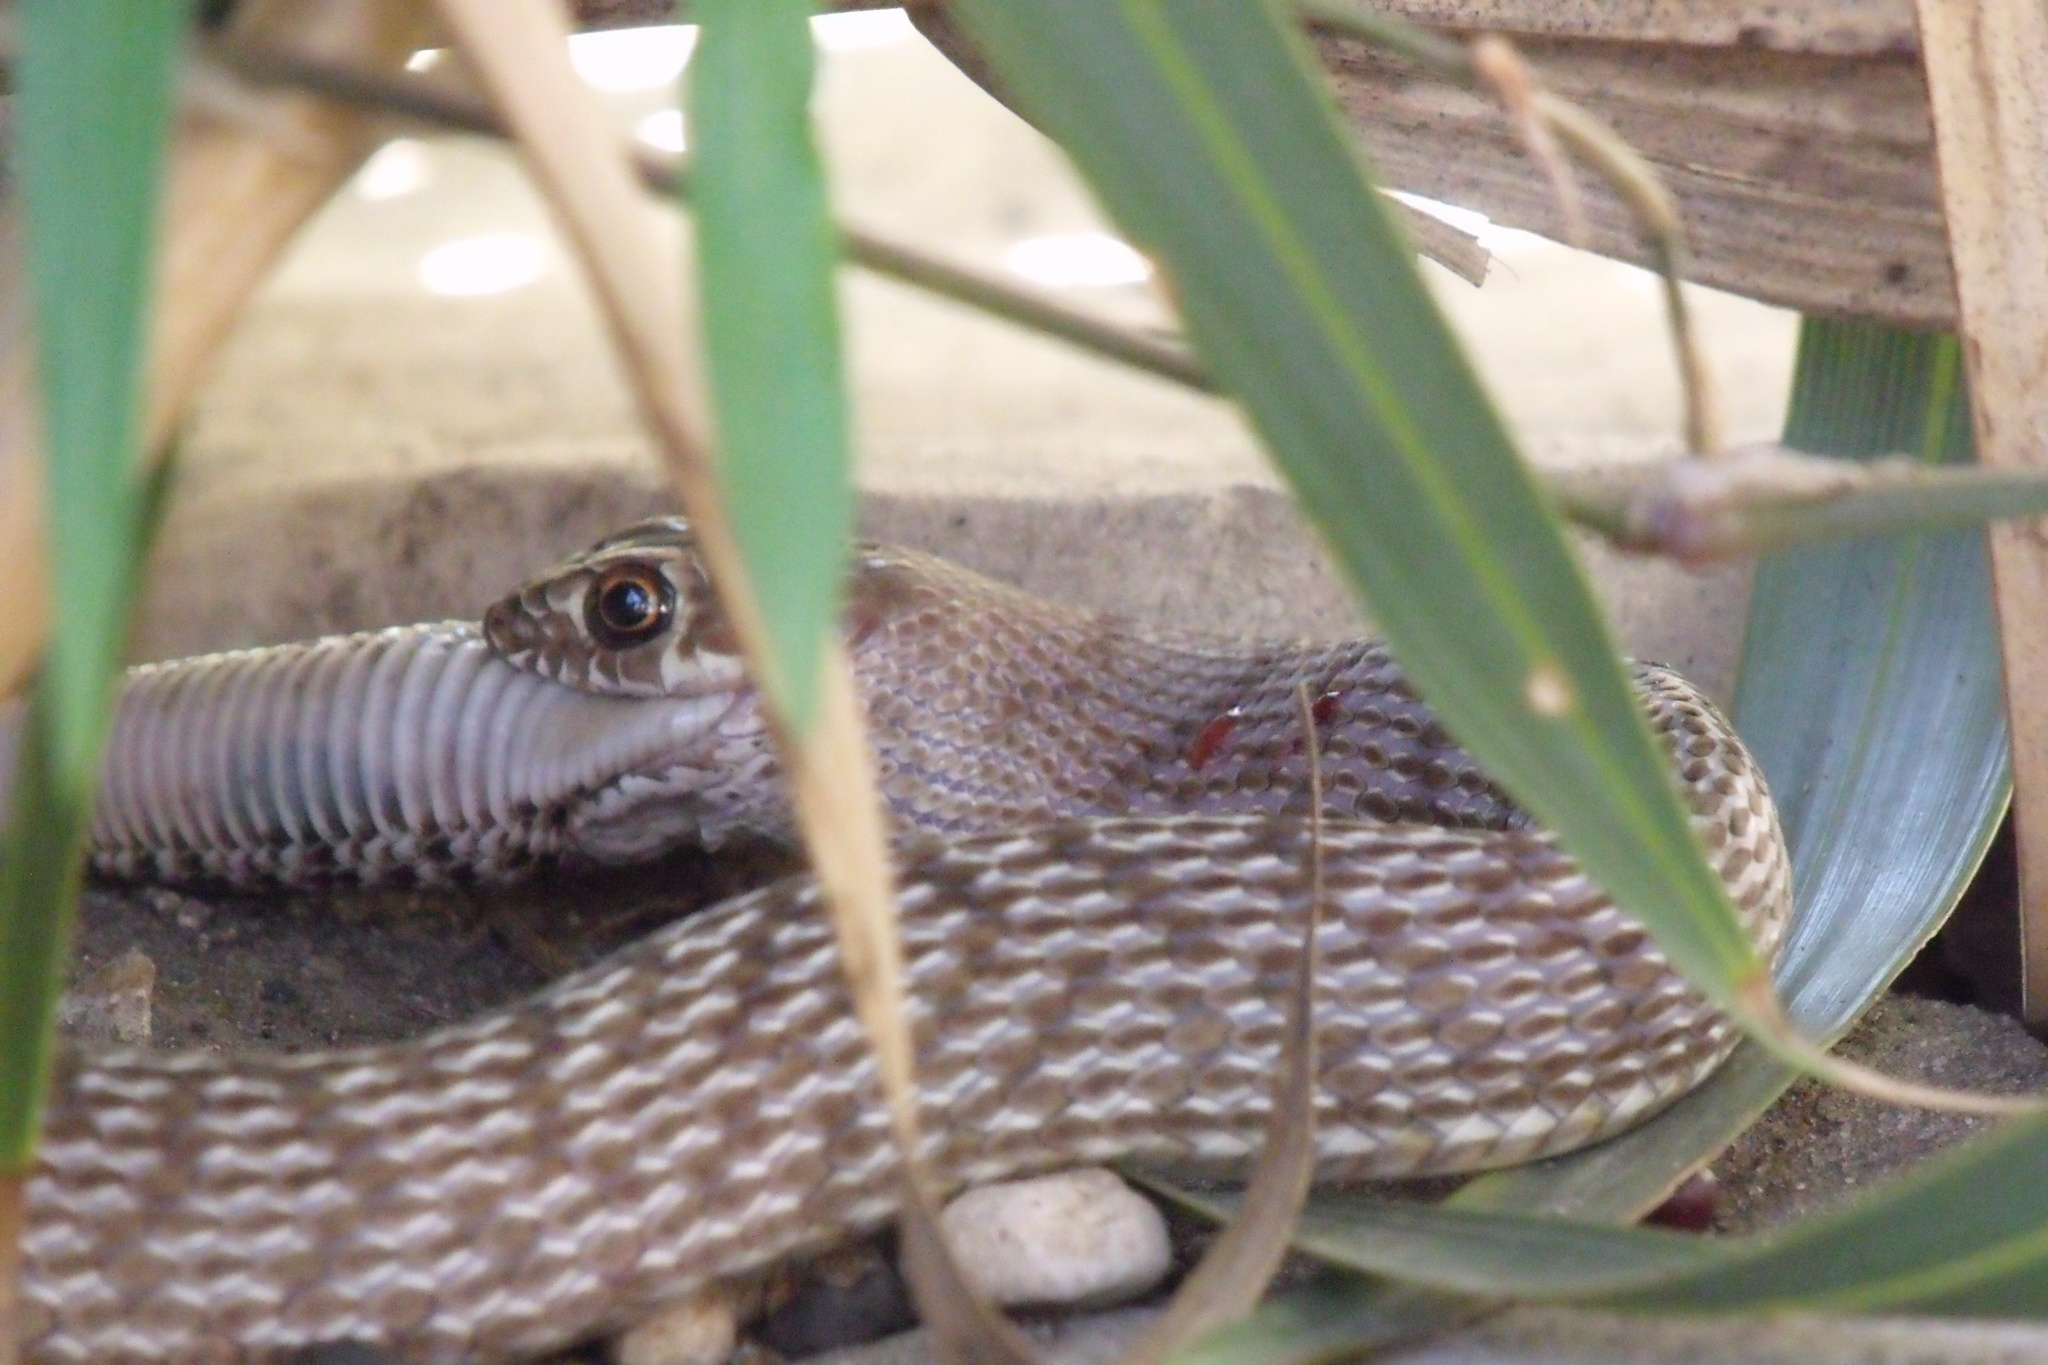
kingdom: Animalia
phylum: Chordata
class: Squamata
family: Colubridae
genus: Masticophis
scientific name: Masticophis flagellum
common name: Coachwhip
